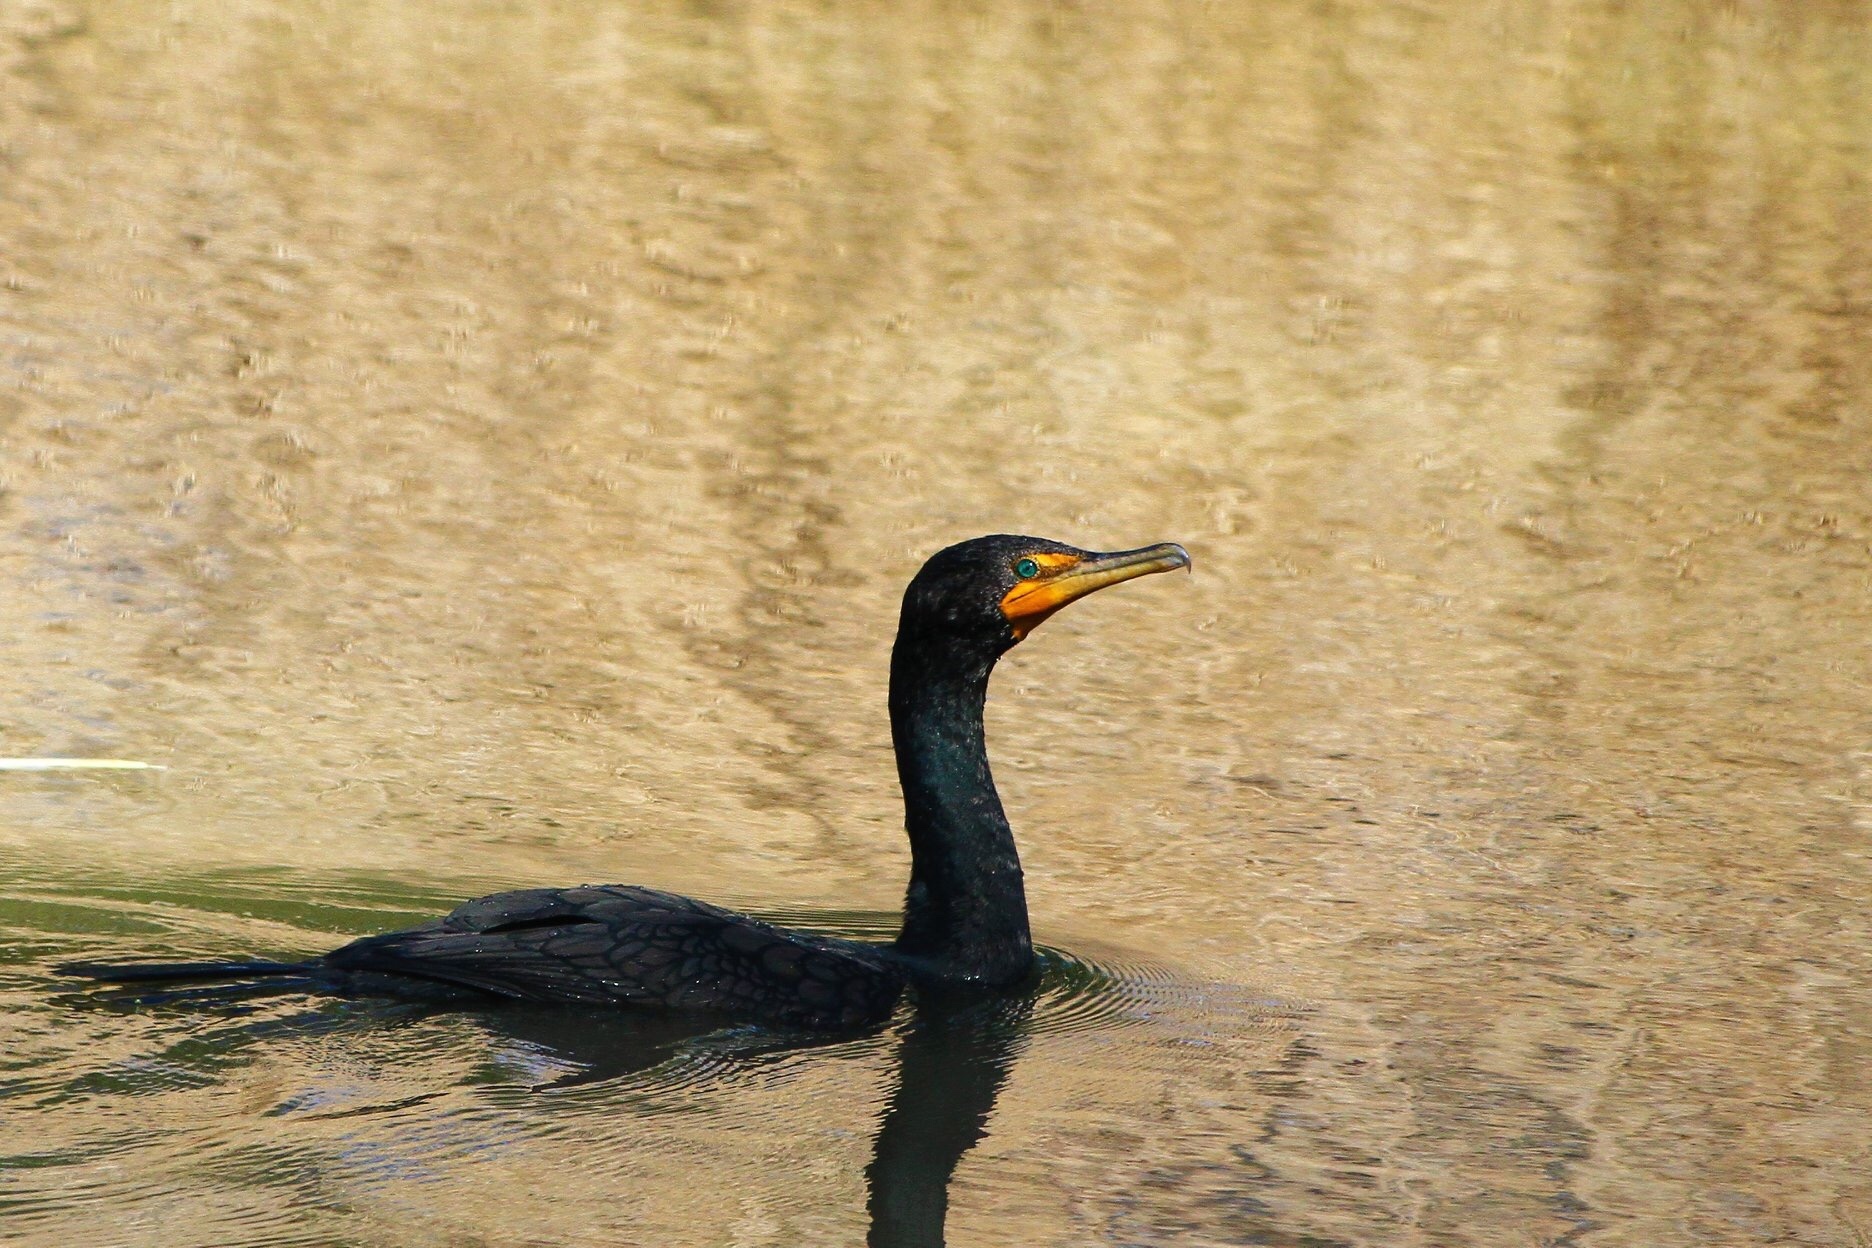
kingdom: Animalia
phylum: Chordata
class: Aves
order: Suliformes
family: Phalacrocoracidae
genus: Phalacrocorax
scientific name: Phalacrocorax auritus
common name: Double-crested cormorant
